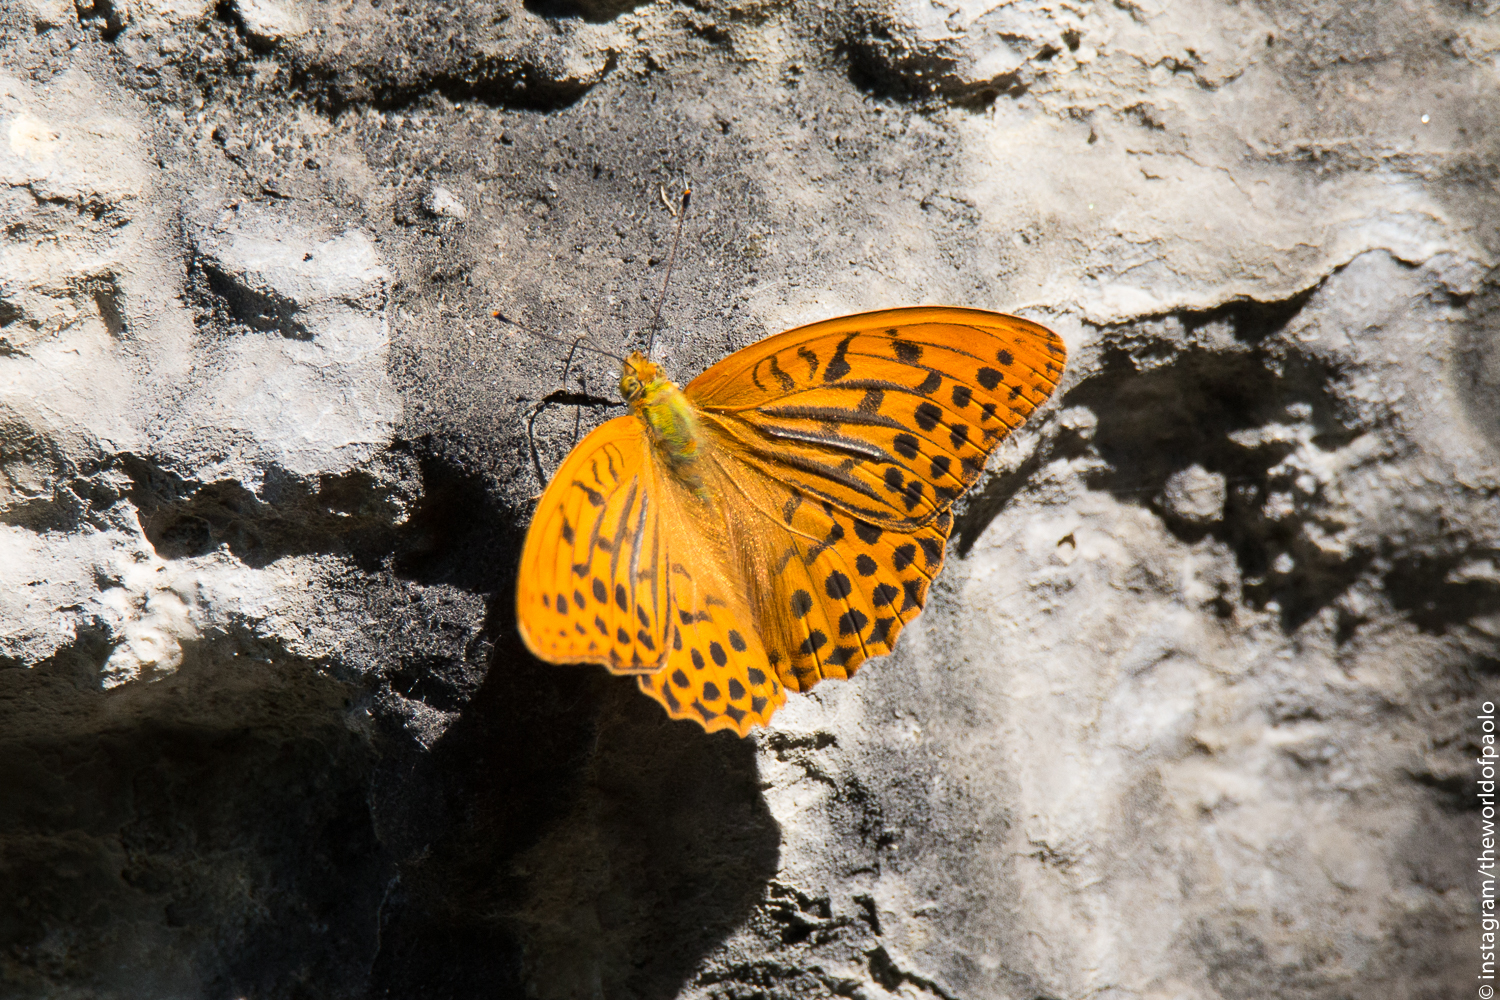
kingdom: Animalia
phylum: Arthropoda
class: Insecta
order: Lepidoptera
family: Nymphalidae
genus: Argynnis
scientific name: Argynnis paphia
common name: Silver-washed fritillary
